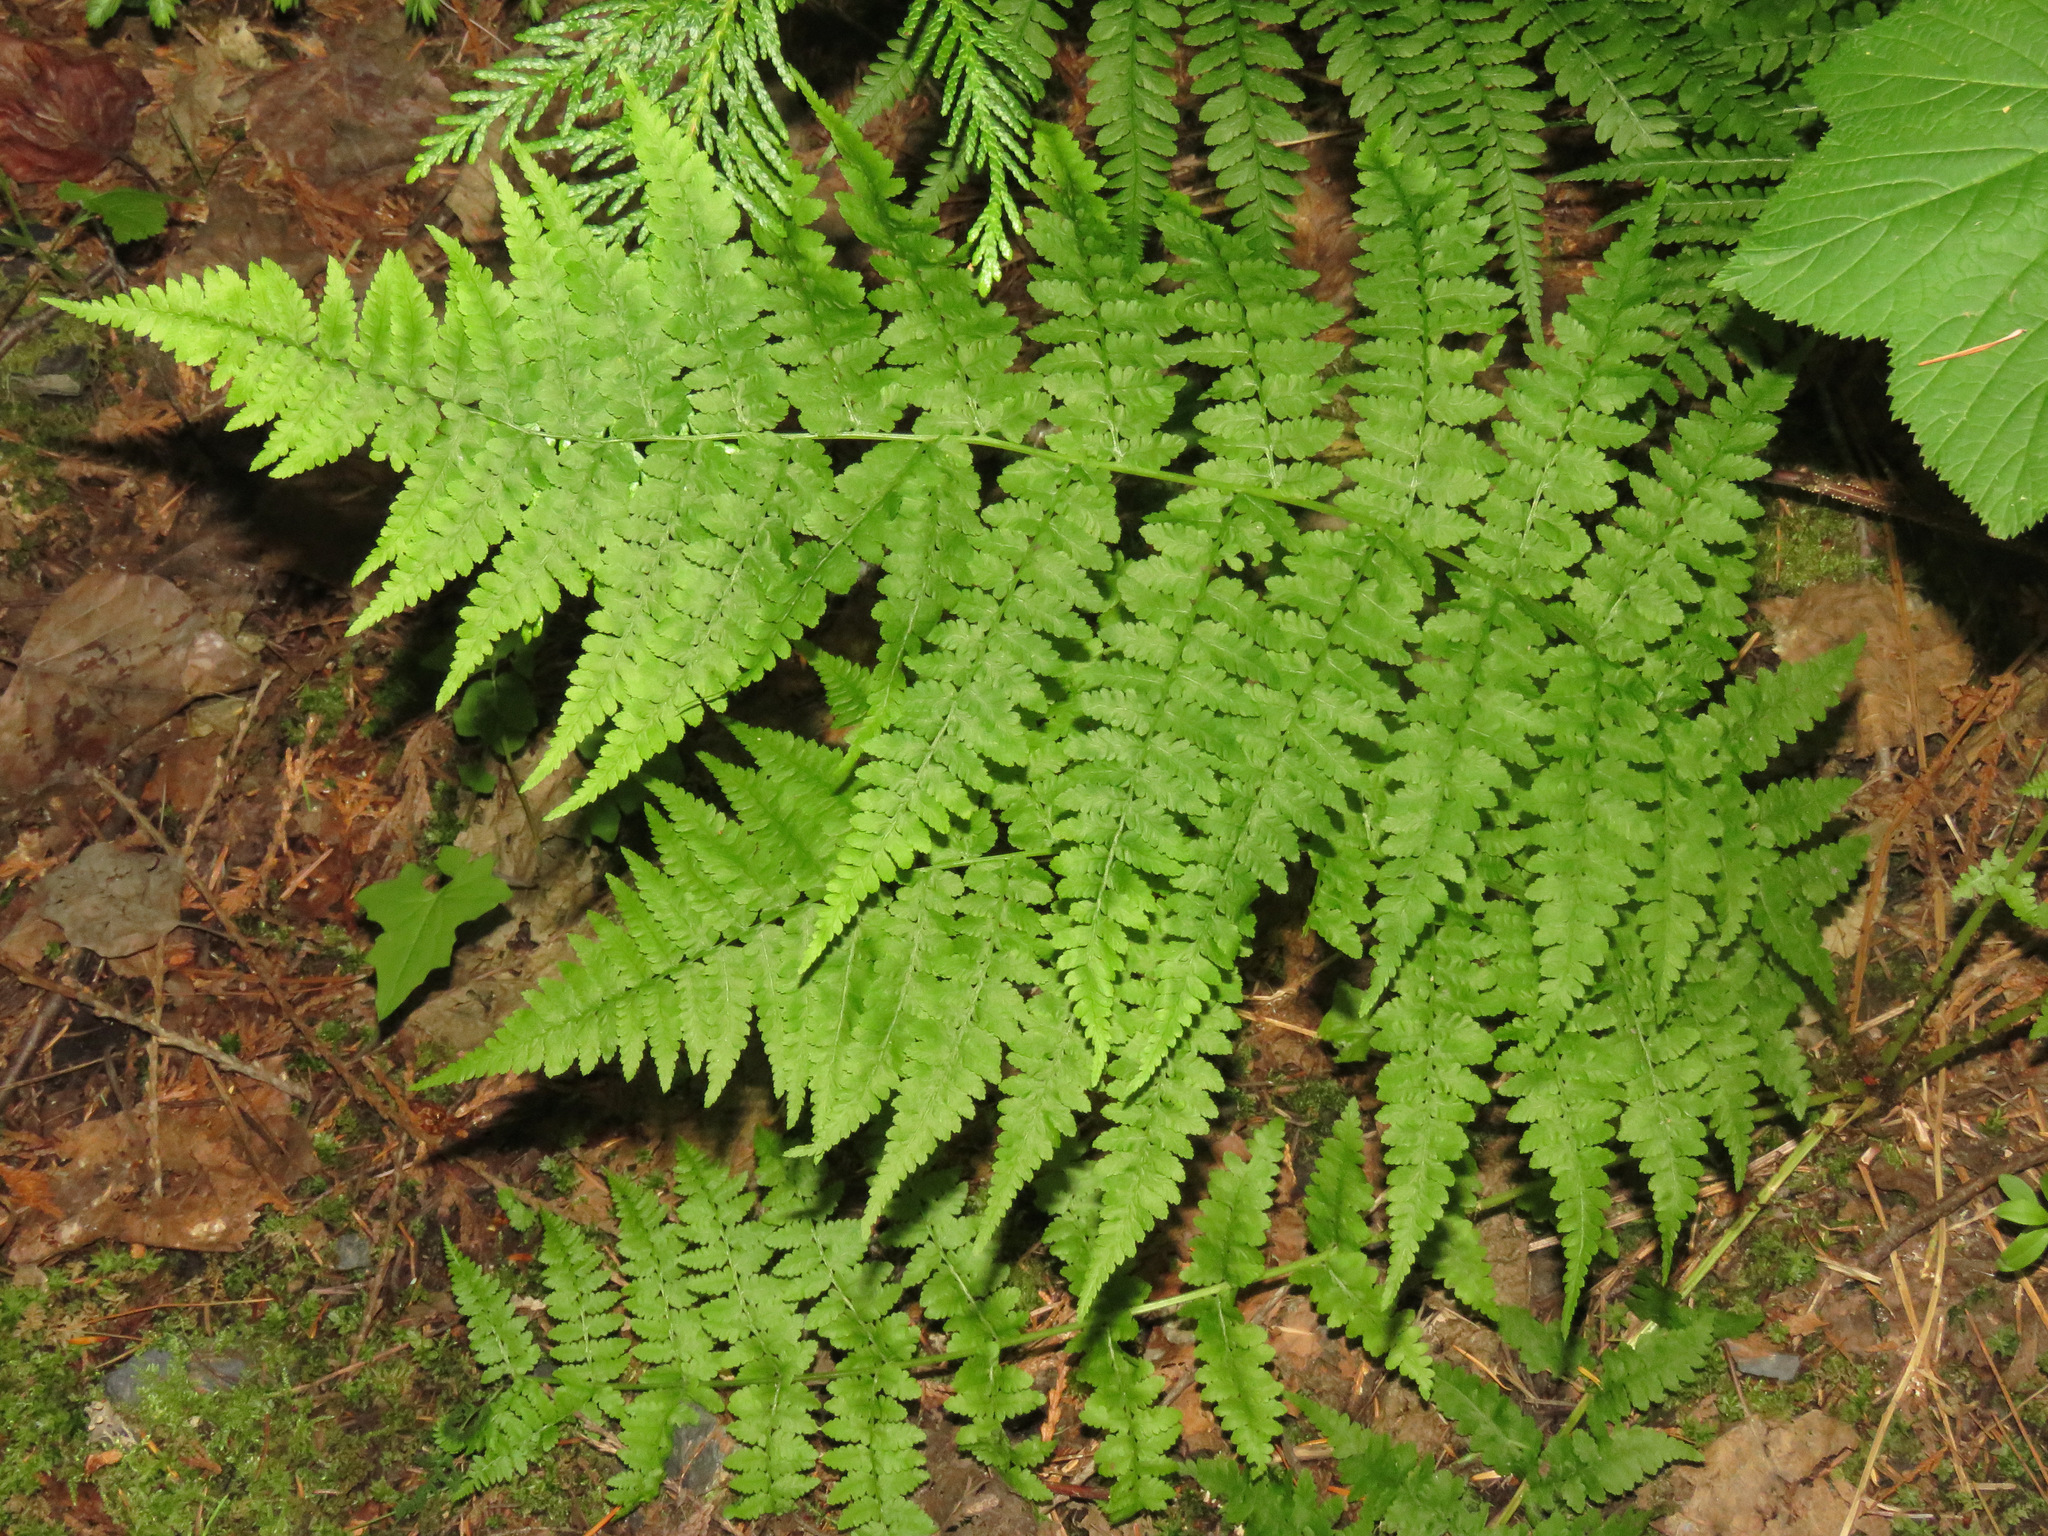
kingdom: Plantae
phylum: Tracheophyta
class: Polypodiopsida
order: Polypodiales
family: Athyriaceae
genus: Athyrium
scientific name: Athyrium filix-femina
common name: Lady fern
